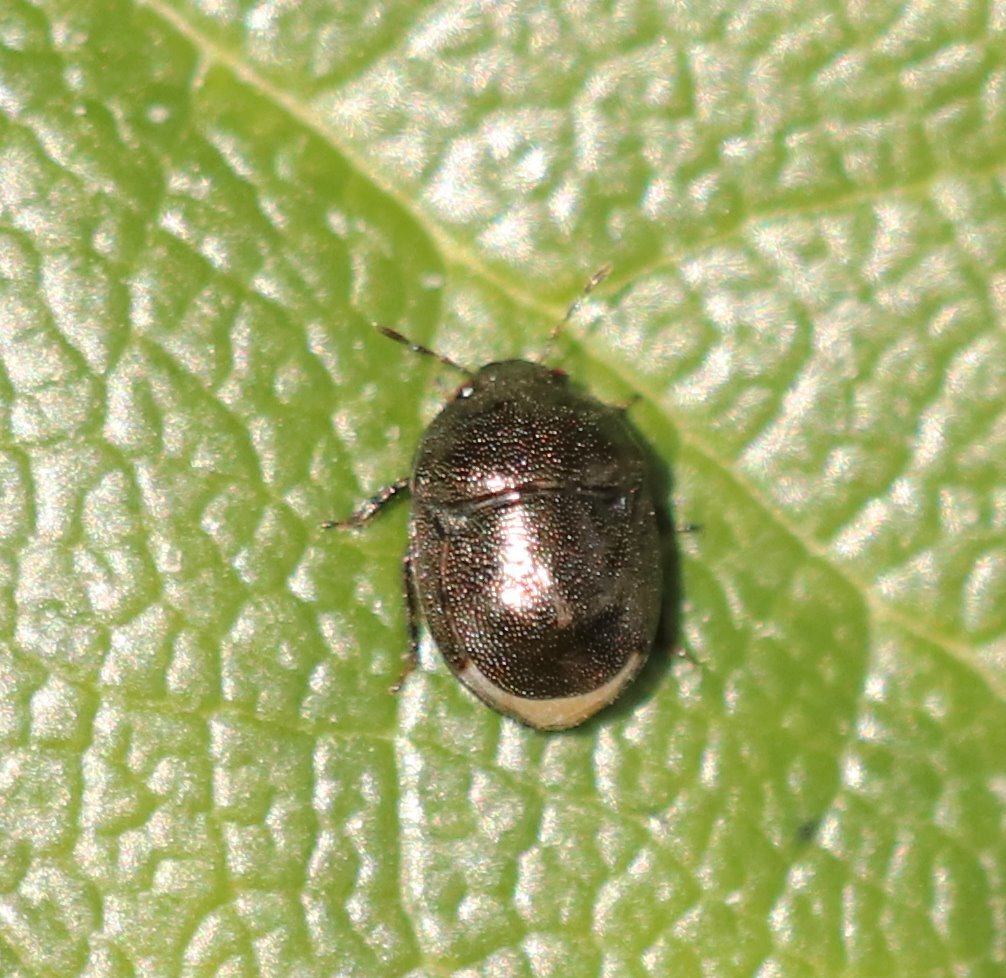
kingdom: Animalia
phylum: Arthropoda
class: Insecta
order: Hemiptera
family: Thyreocoridae
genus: Thyreocoris
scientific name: Thyreocoris scarabaeoides
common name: Negro bug
